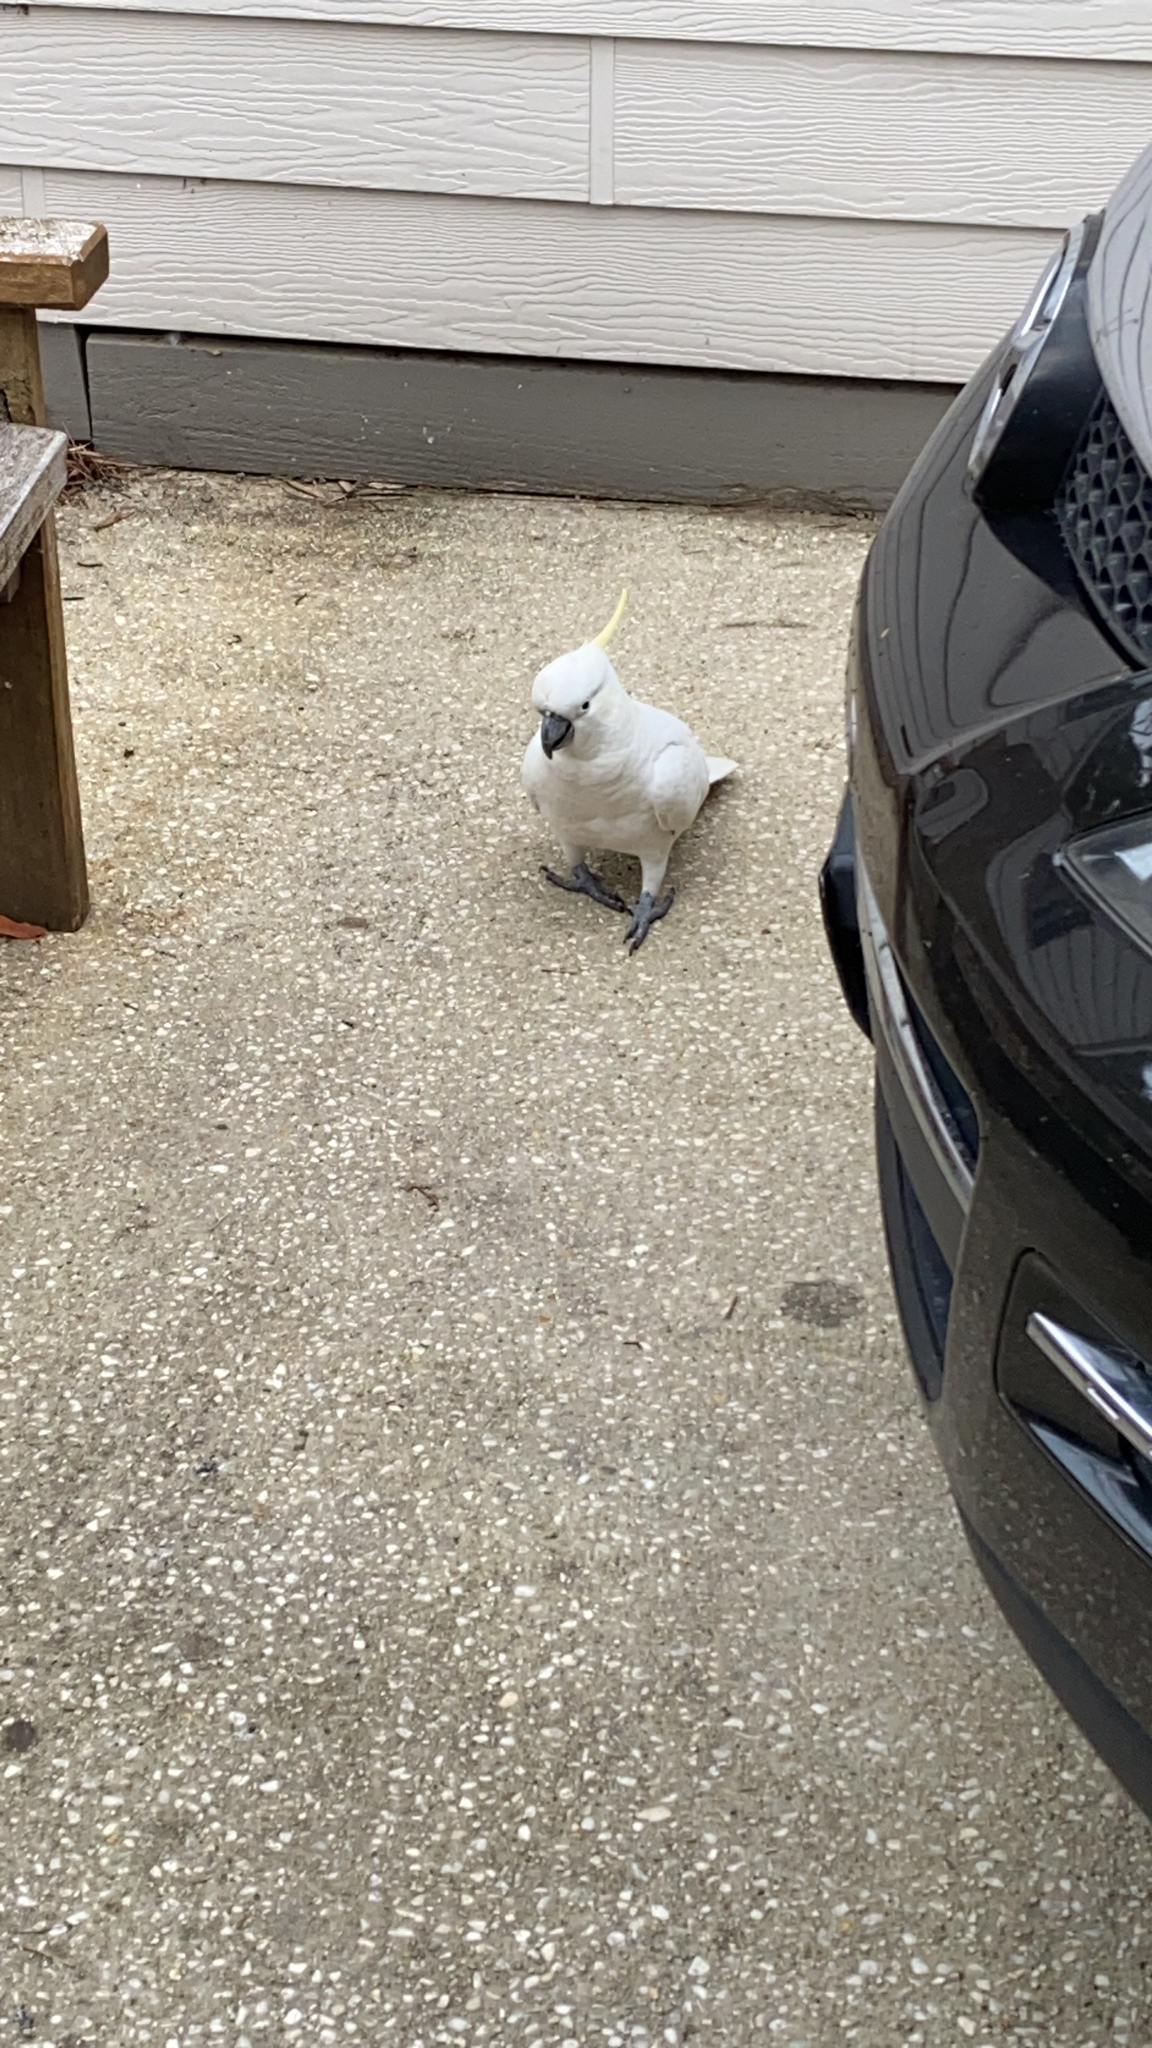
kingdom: Animalia
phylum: Chordata
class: Aves
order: Psittaciformes
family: Psittacidae
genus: Cacatua
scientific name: Cacatua galerita
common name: Sulphur-crested cockatoo
